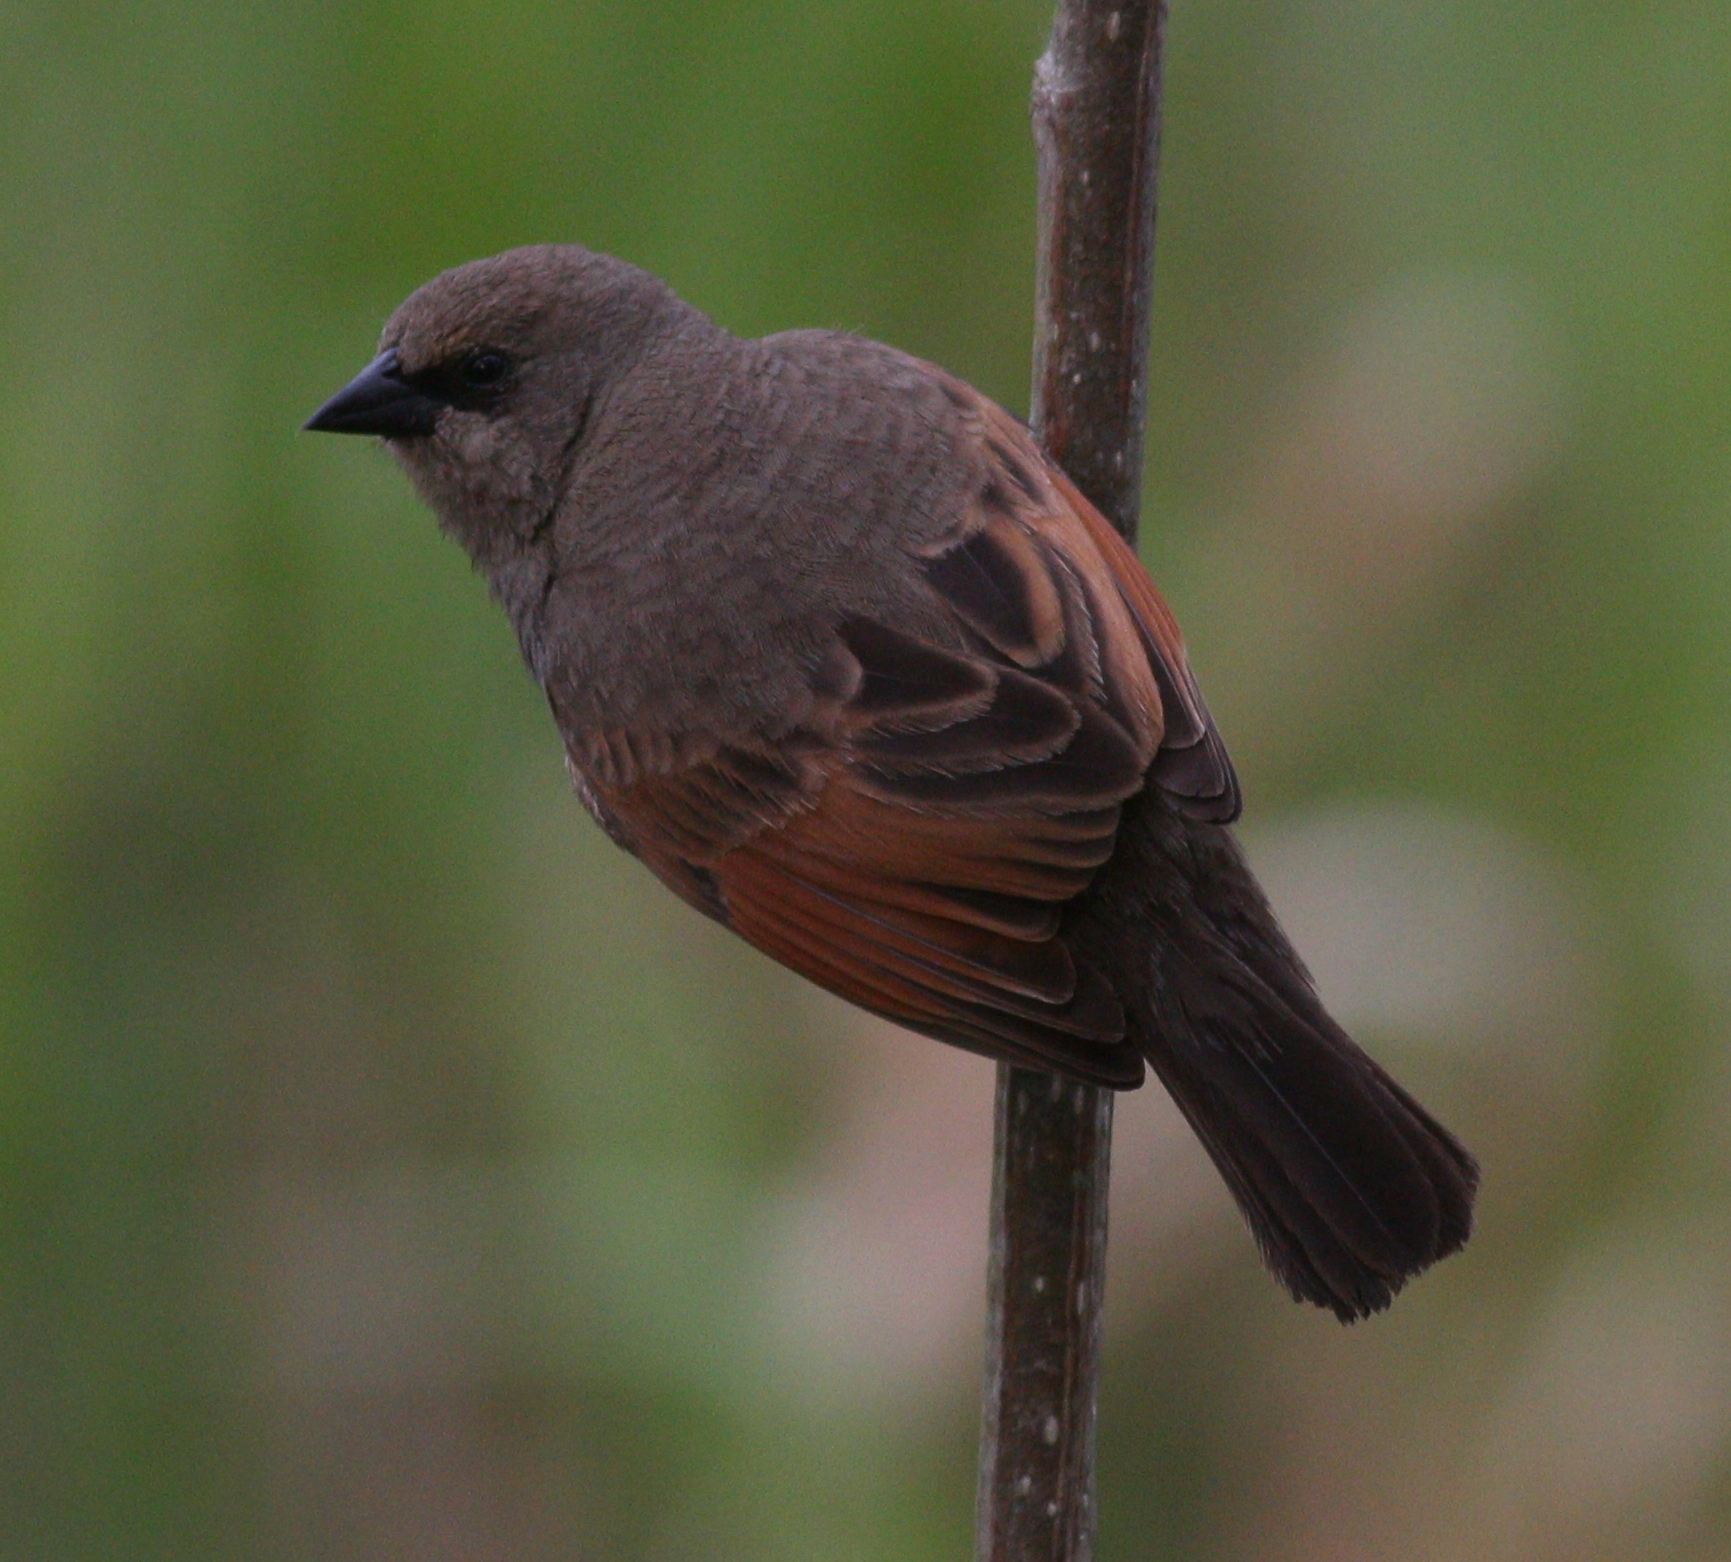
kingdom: Animalia
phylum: Chordata
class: Aves
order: Passeriformes
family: Icteridae
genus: Agelaioides
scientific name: Agelaioides badius
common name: Baywing
